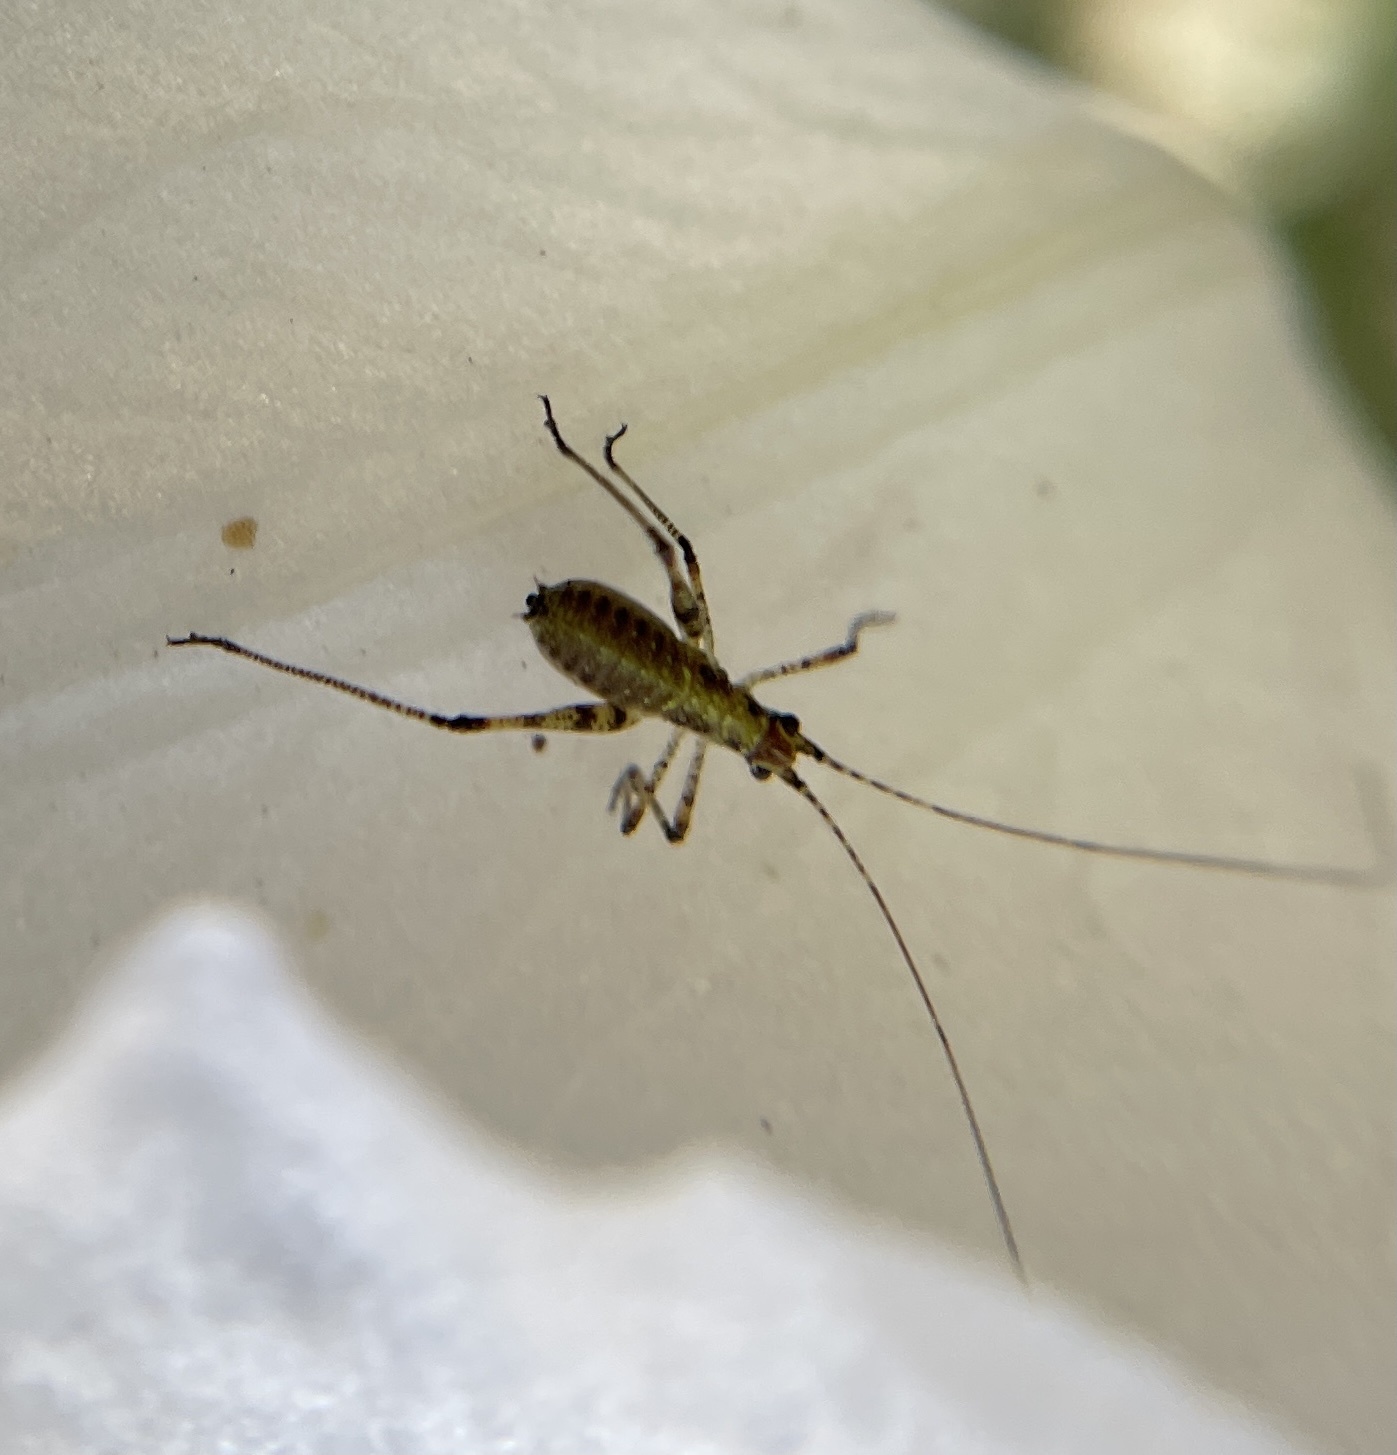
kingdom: Animalia
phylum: Arthropoda
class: Insecta
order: Orthoptera
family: Tettigoniidae
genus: Phaneroptera
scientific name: Phaneroptera nana
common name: Southern sickle bush-cricket
